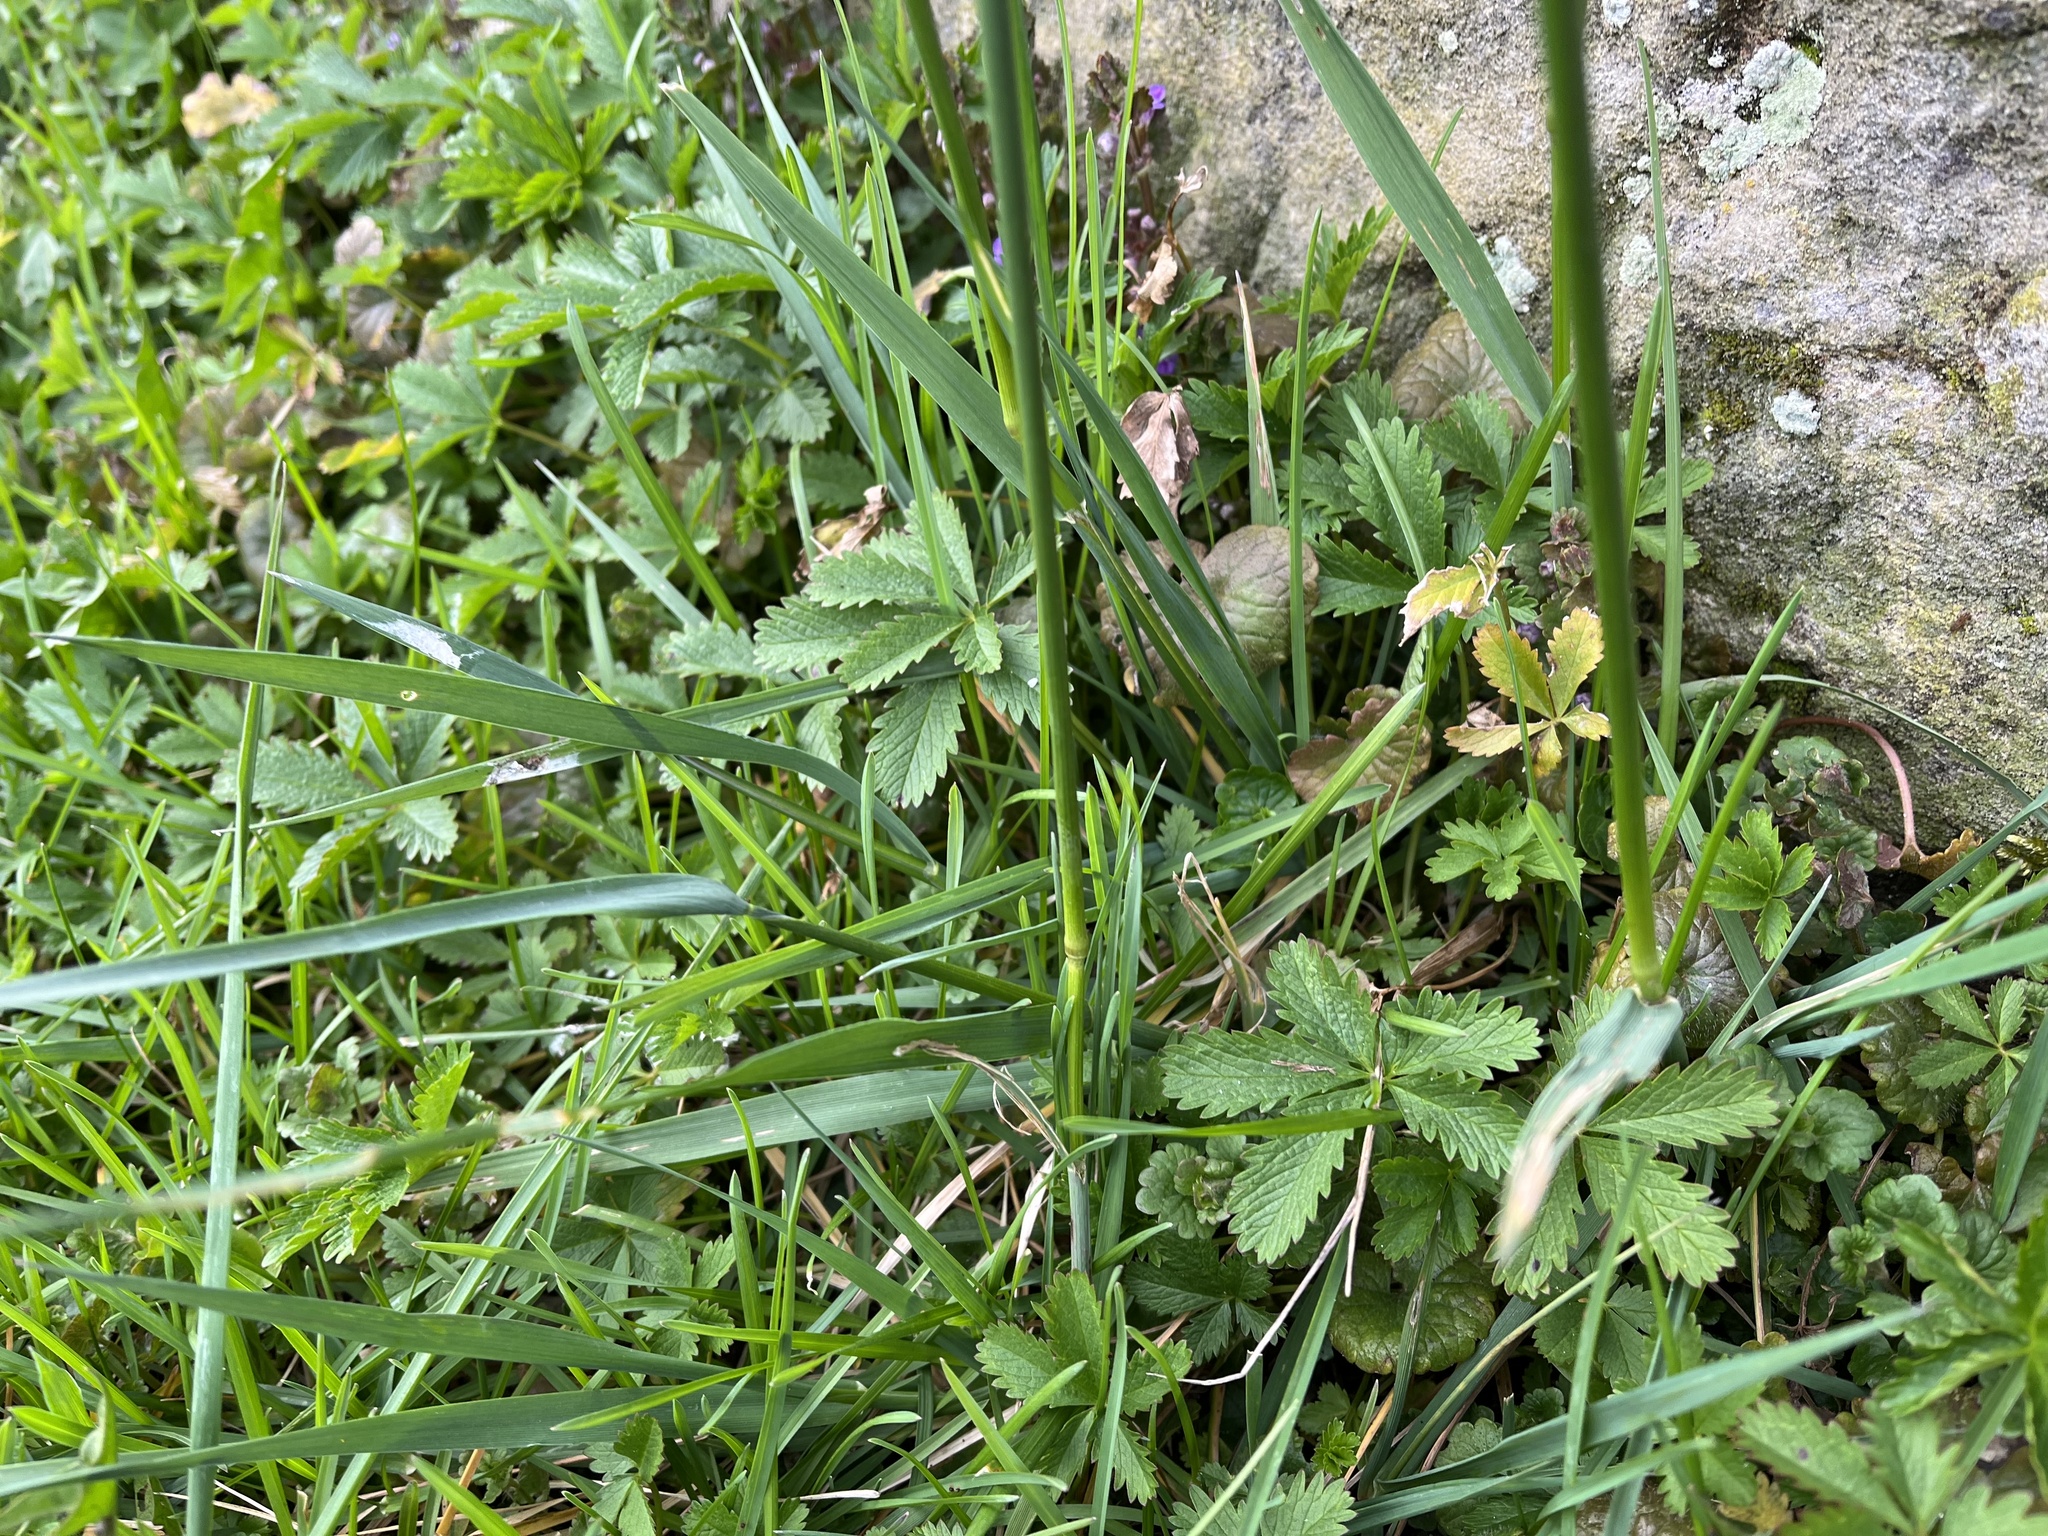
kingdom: Plantae
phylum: Tracheophyta
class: Liliopsida
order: Poales
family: Poaceae
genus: Alopecurus
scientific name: Alopecurus pratensis
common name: Meadow foxtail
